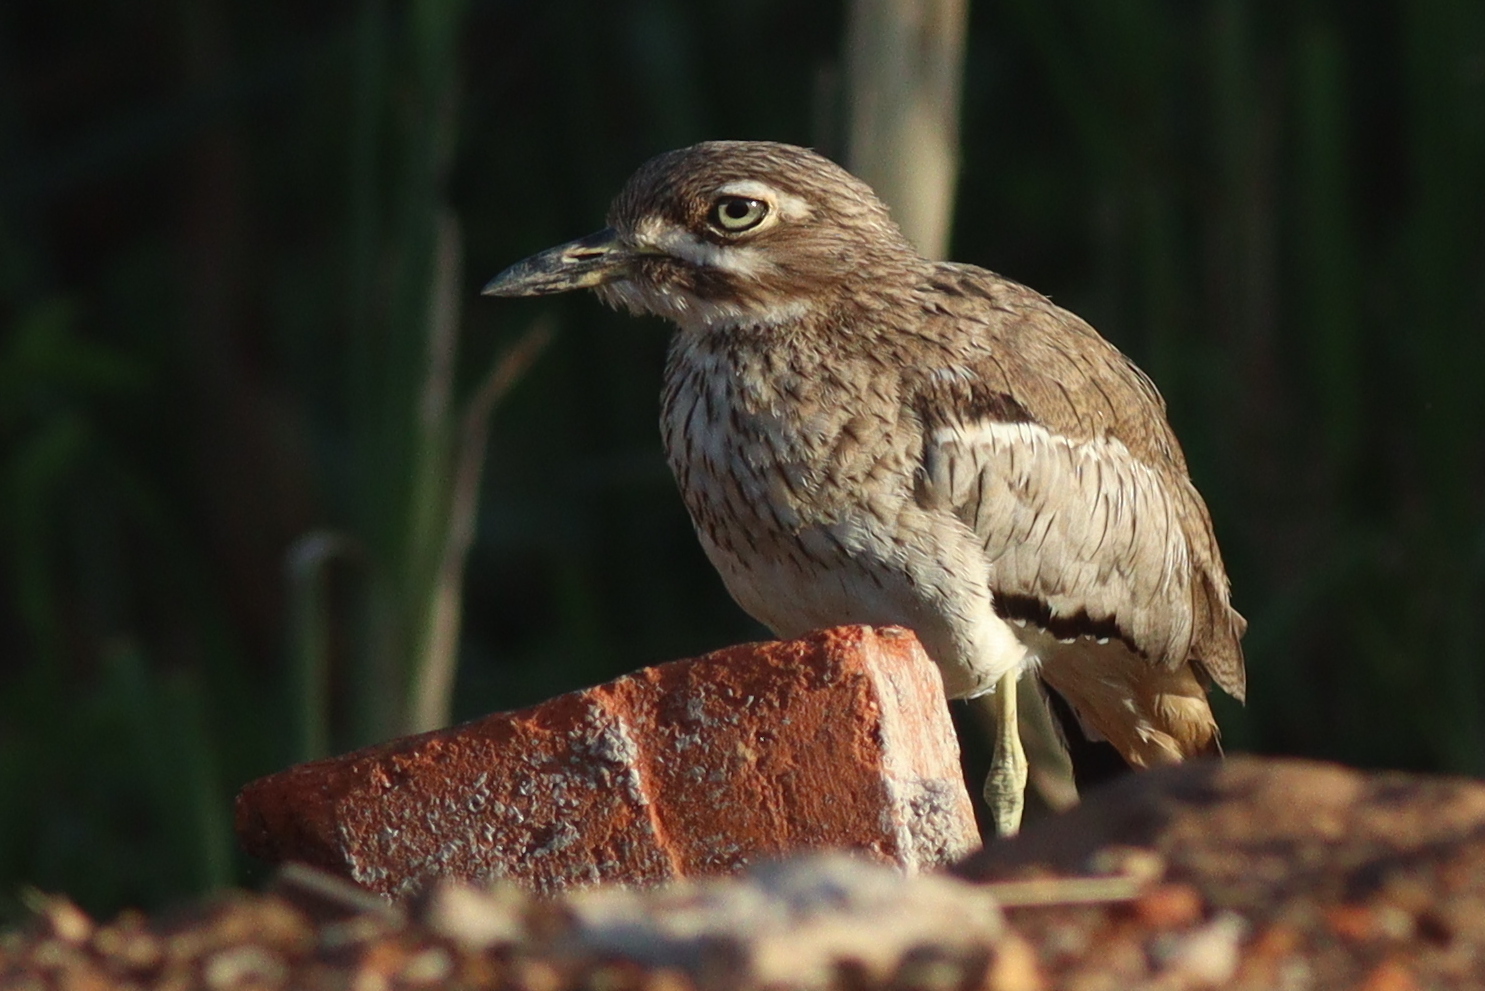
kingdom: Animalia
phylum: Chordata
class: Aves
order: Charadriiformes
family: Burhinidae
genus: Burhinus
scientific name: Burhinus vermiculatus
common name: Water thick-knee
